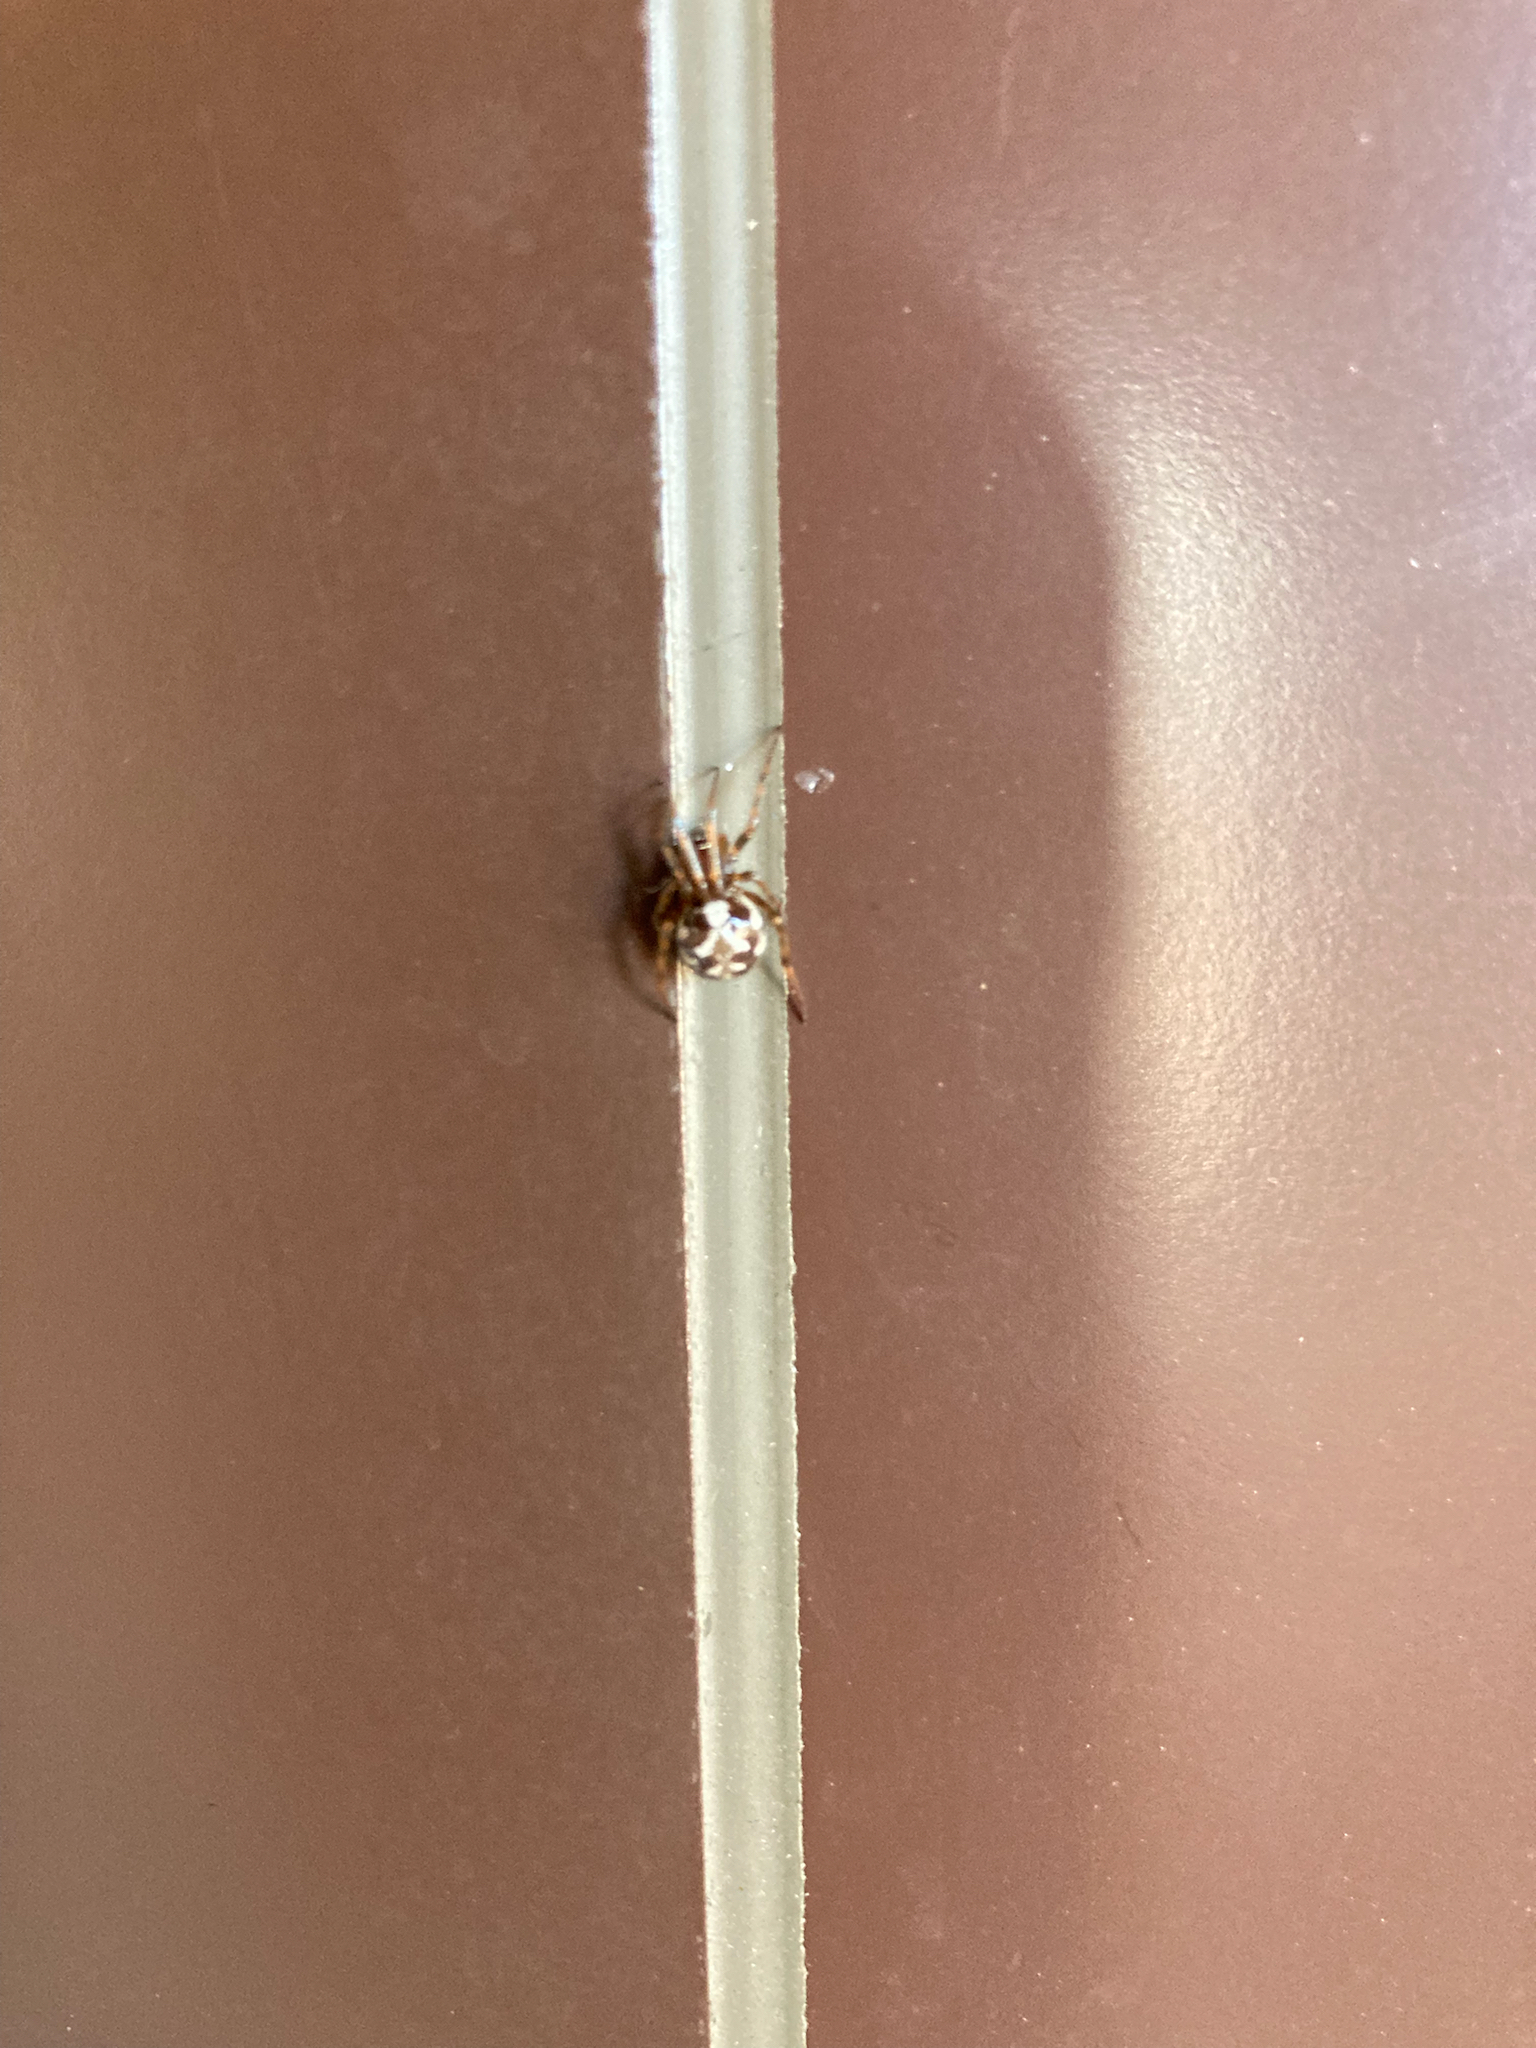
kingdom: Animalia
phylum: Arthropoda
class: Arachnida
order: Araneae
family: Theridiidae
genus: Steatoda
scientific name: Steatoda triangulosa
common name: Triangulate bud spider
